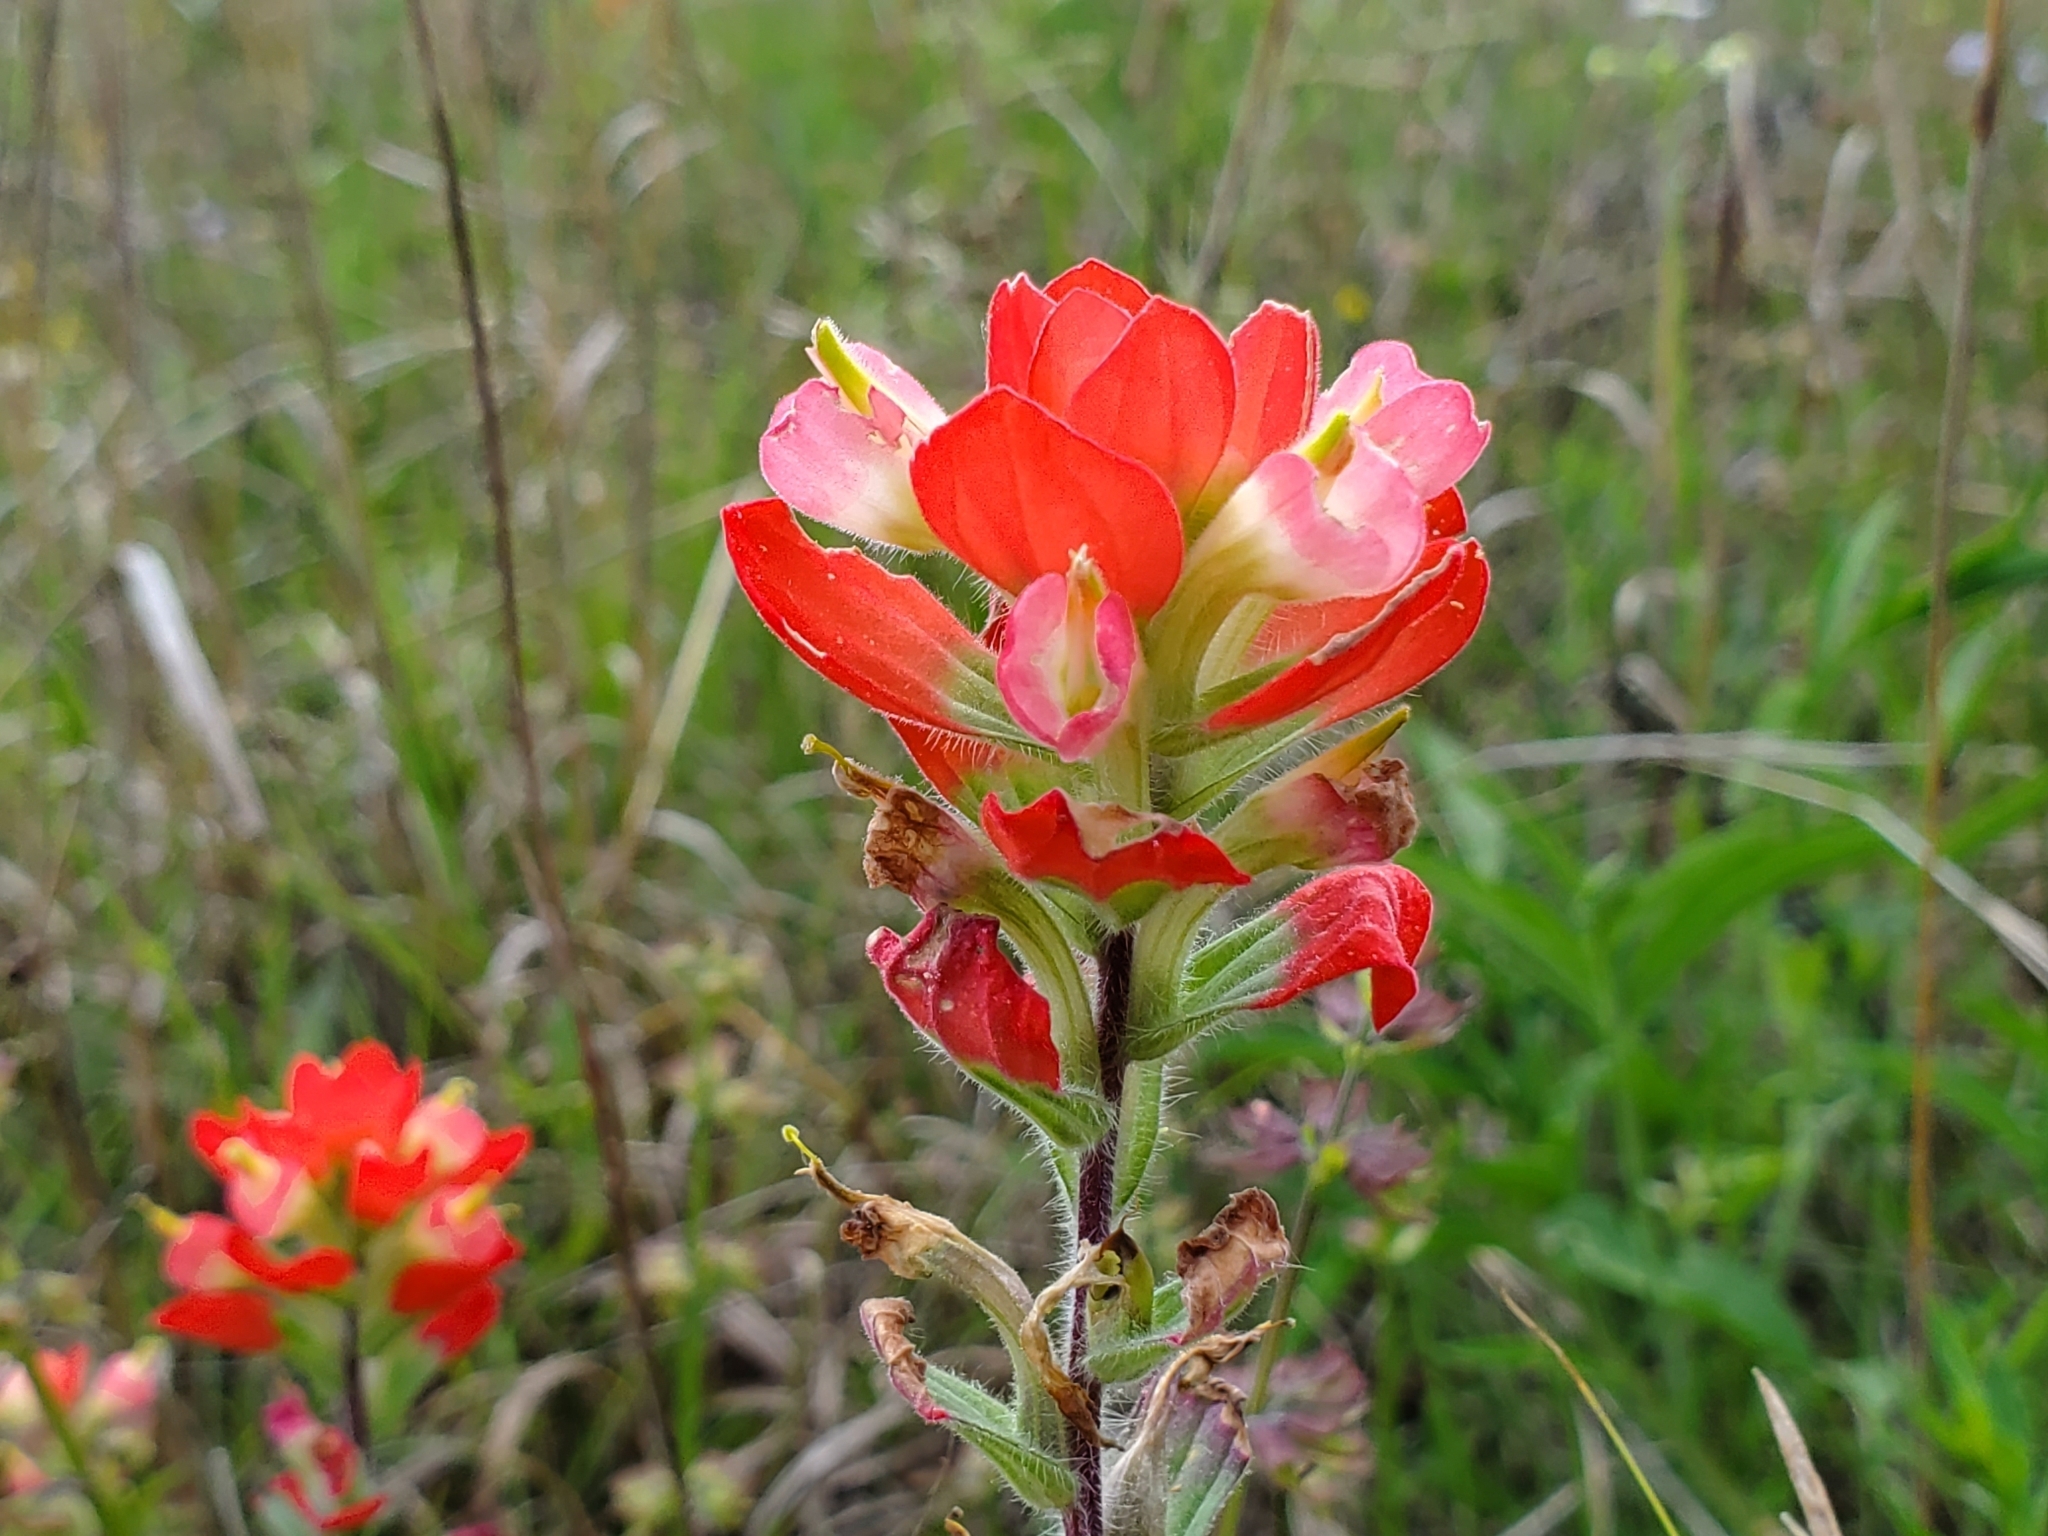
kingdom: Plantae
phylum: Tracheophyta
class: Magnoliopsida
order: Lamiales
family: Orobanchaceae
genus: Castilleja
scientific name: Castilleja indivisa
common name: Texas paintbrush
